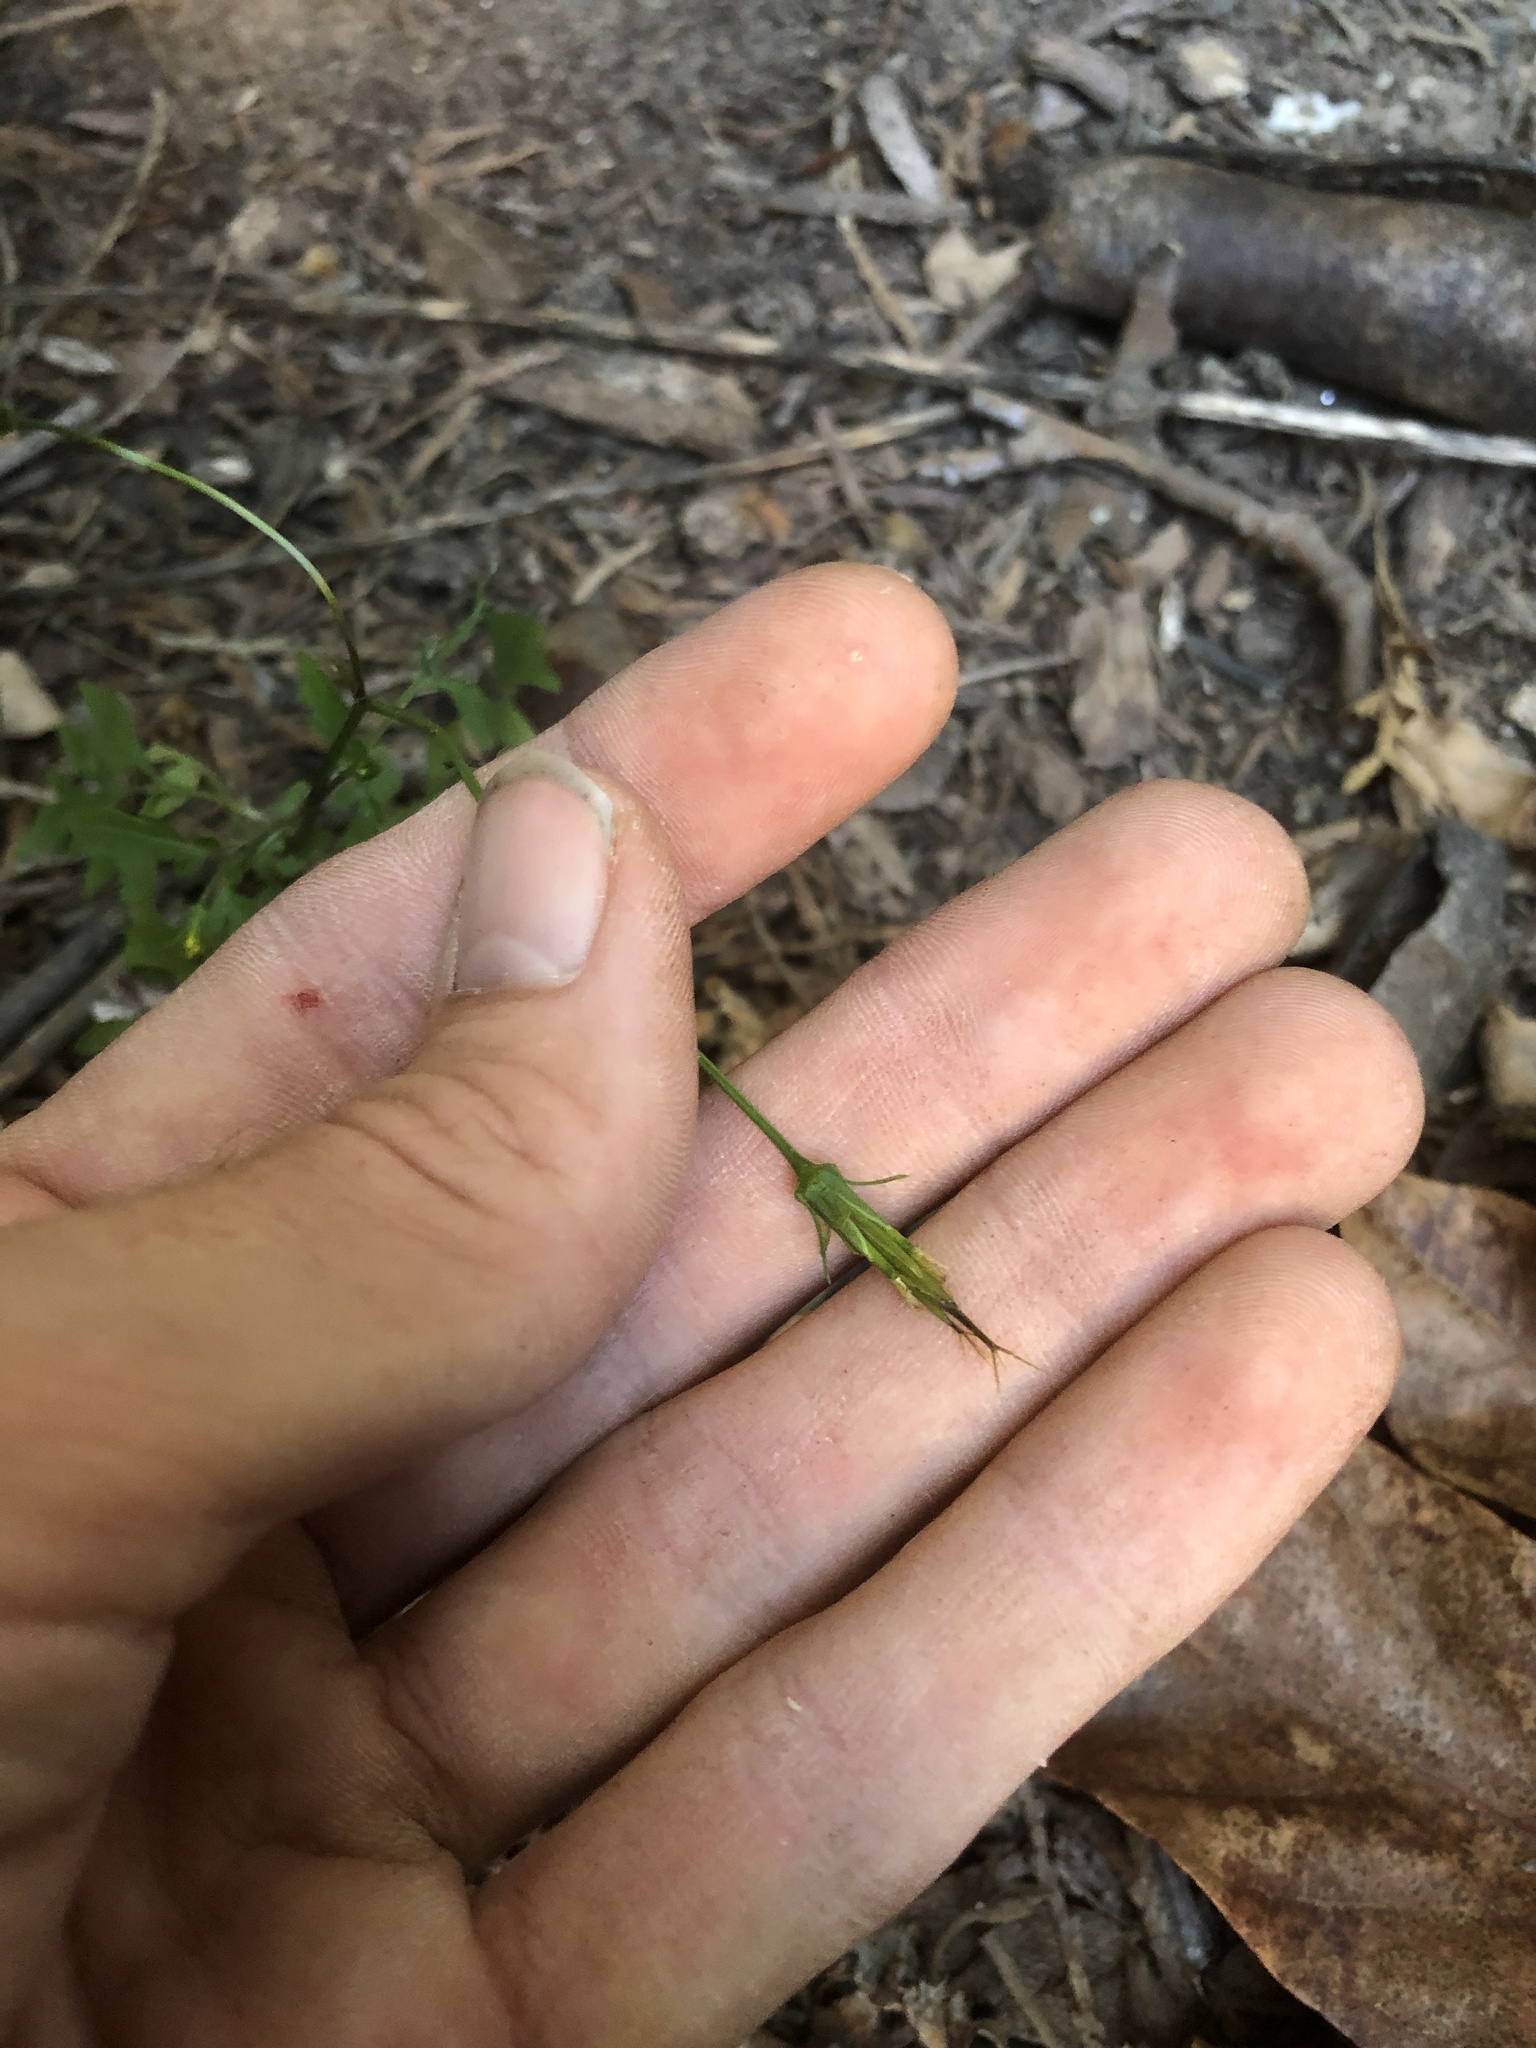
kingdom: Plantae
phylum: Tracheophyta
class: Magnoliopsida
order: Asterales
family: Asteraceae
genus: Bidens
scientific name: Bidens bipinnata
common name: Spanish-needles
